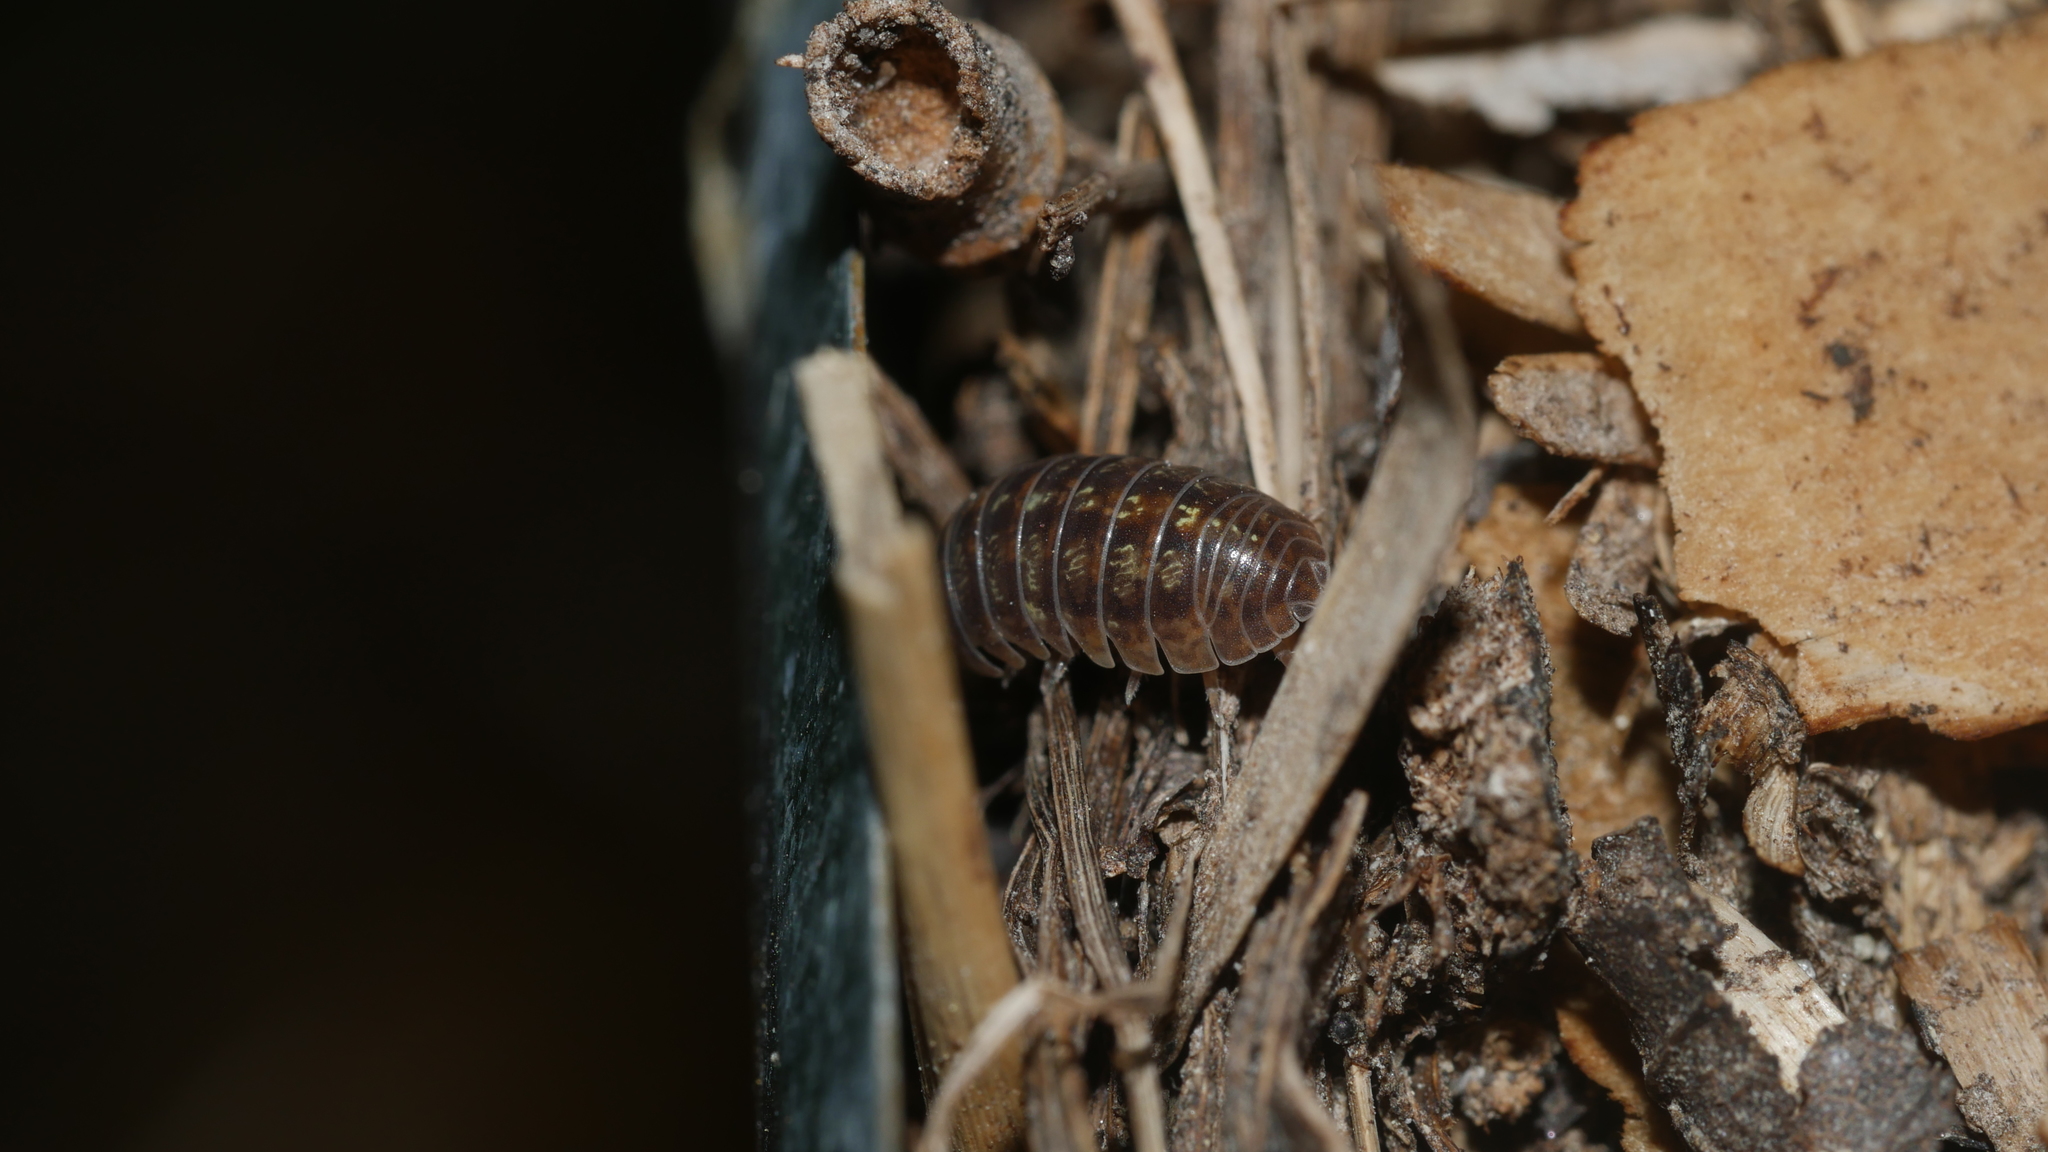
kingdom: Animalia
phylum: Arthropoda
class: Malacostraca
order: Isopoda
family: Armadillidiidae
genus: Armadillidium
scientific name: Armadillidium vulgare
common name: Common pill woodlouse
